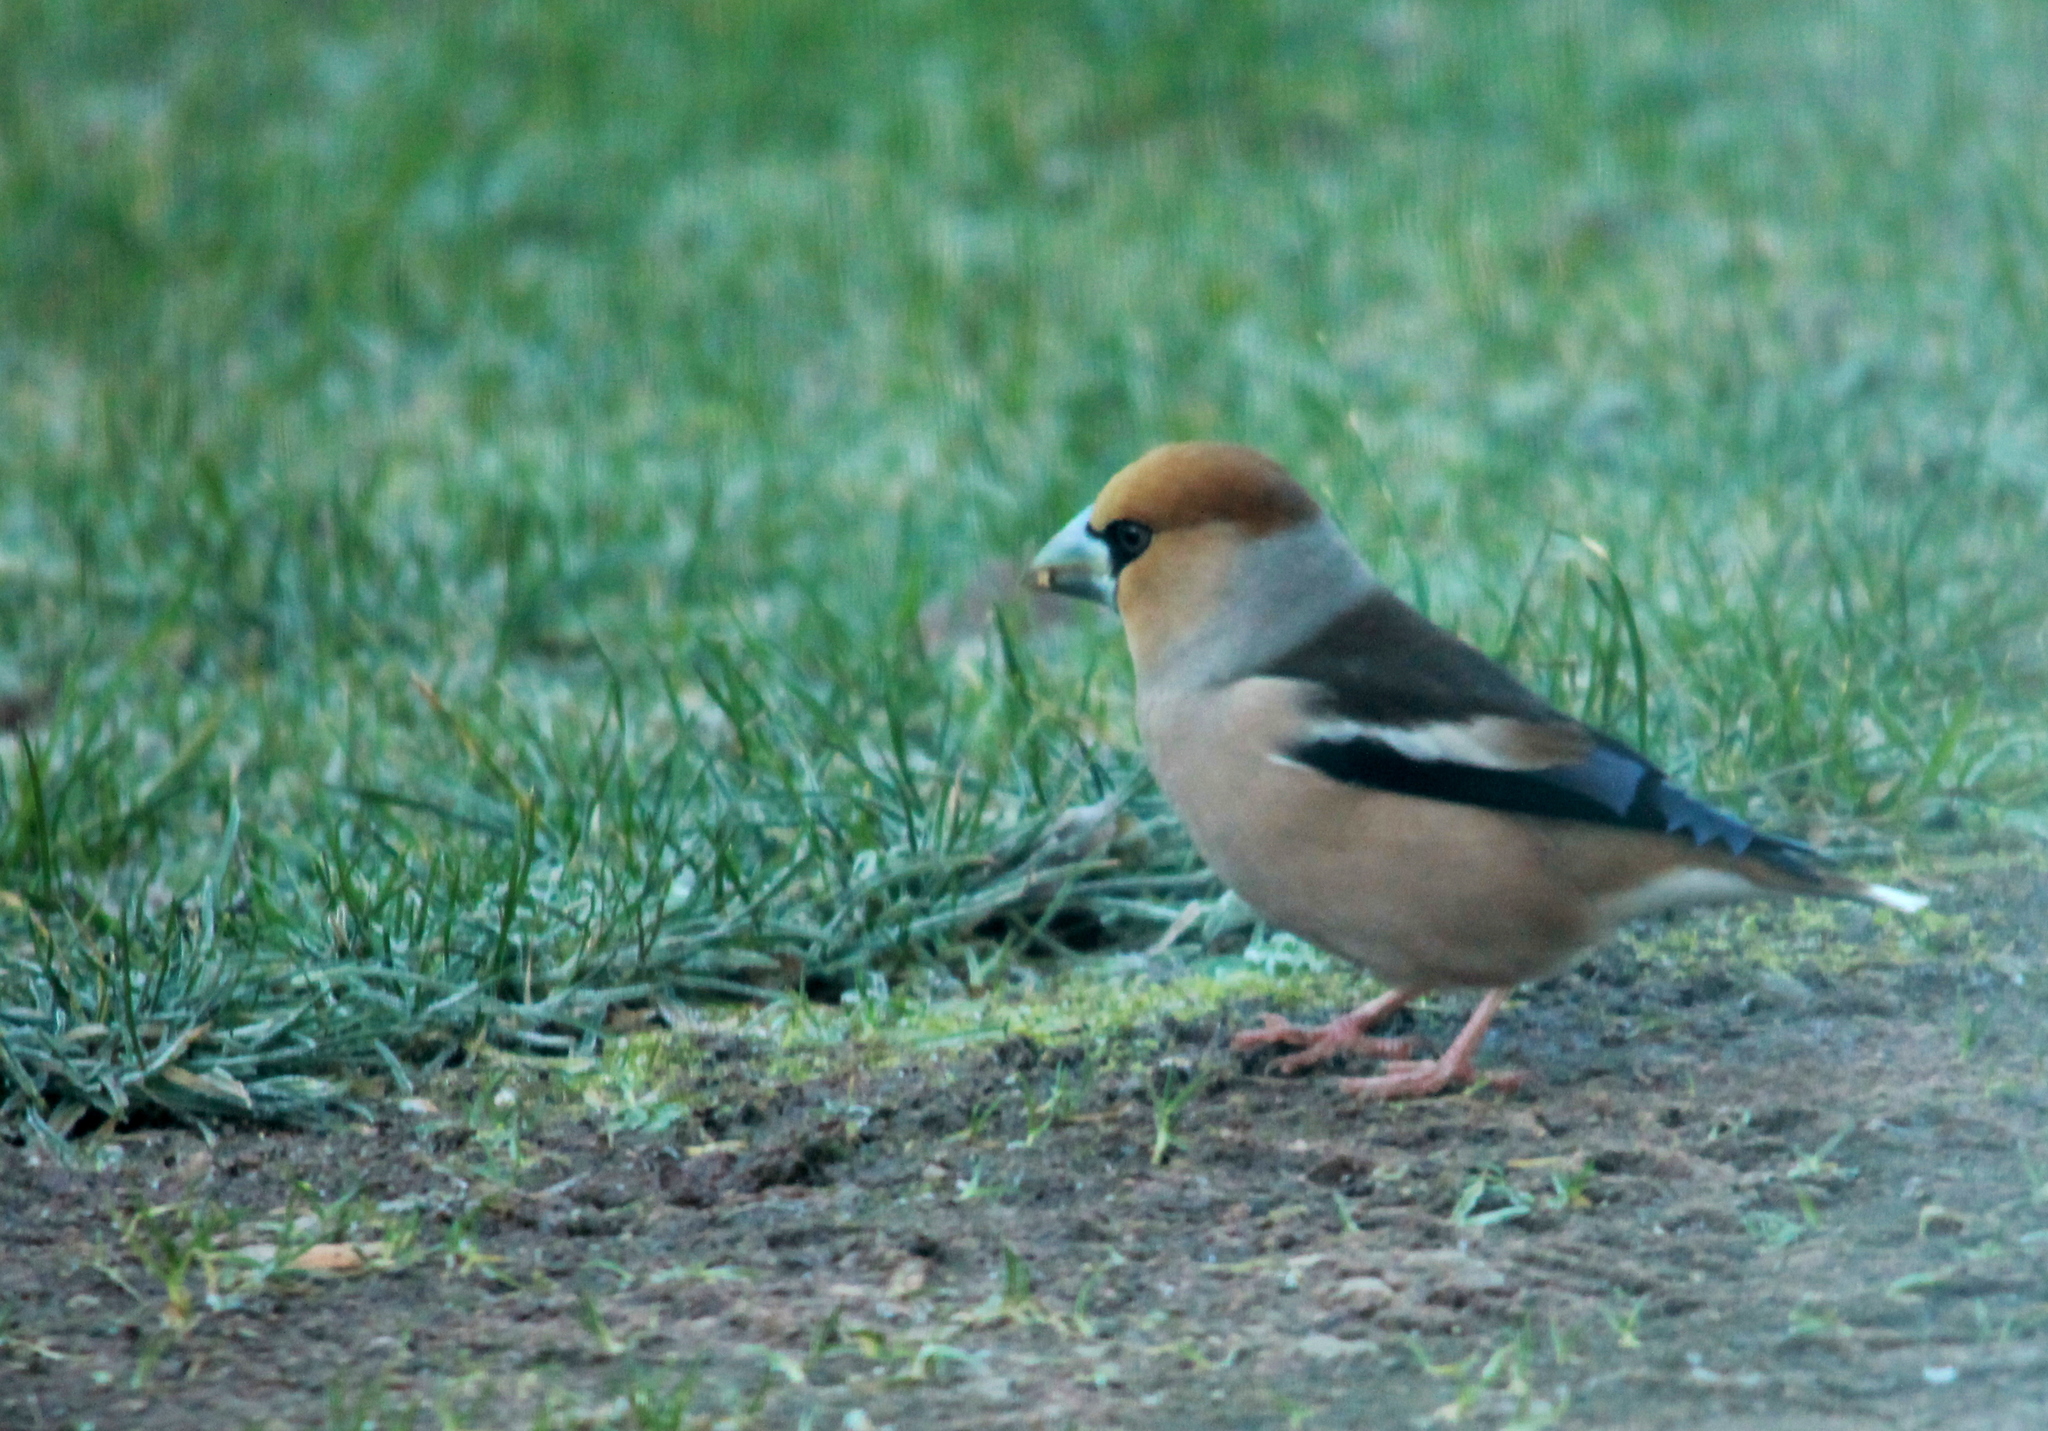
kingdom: Animalia
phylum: Chordata
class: Aves
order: Passeriformes
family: Fringillidae
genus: Coccothraustes
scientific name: Coccothraustes coccothraustes
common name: Hawfinch
